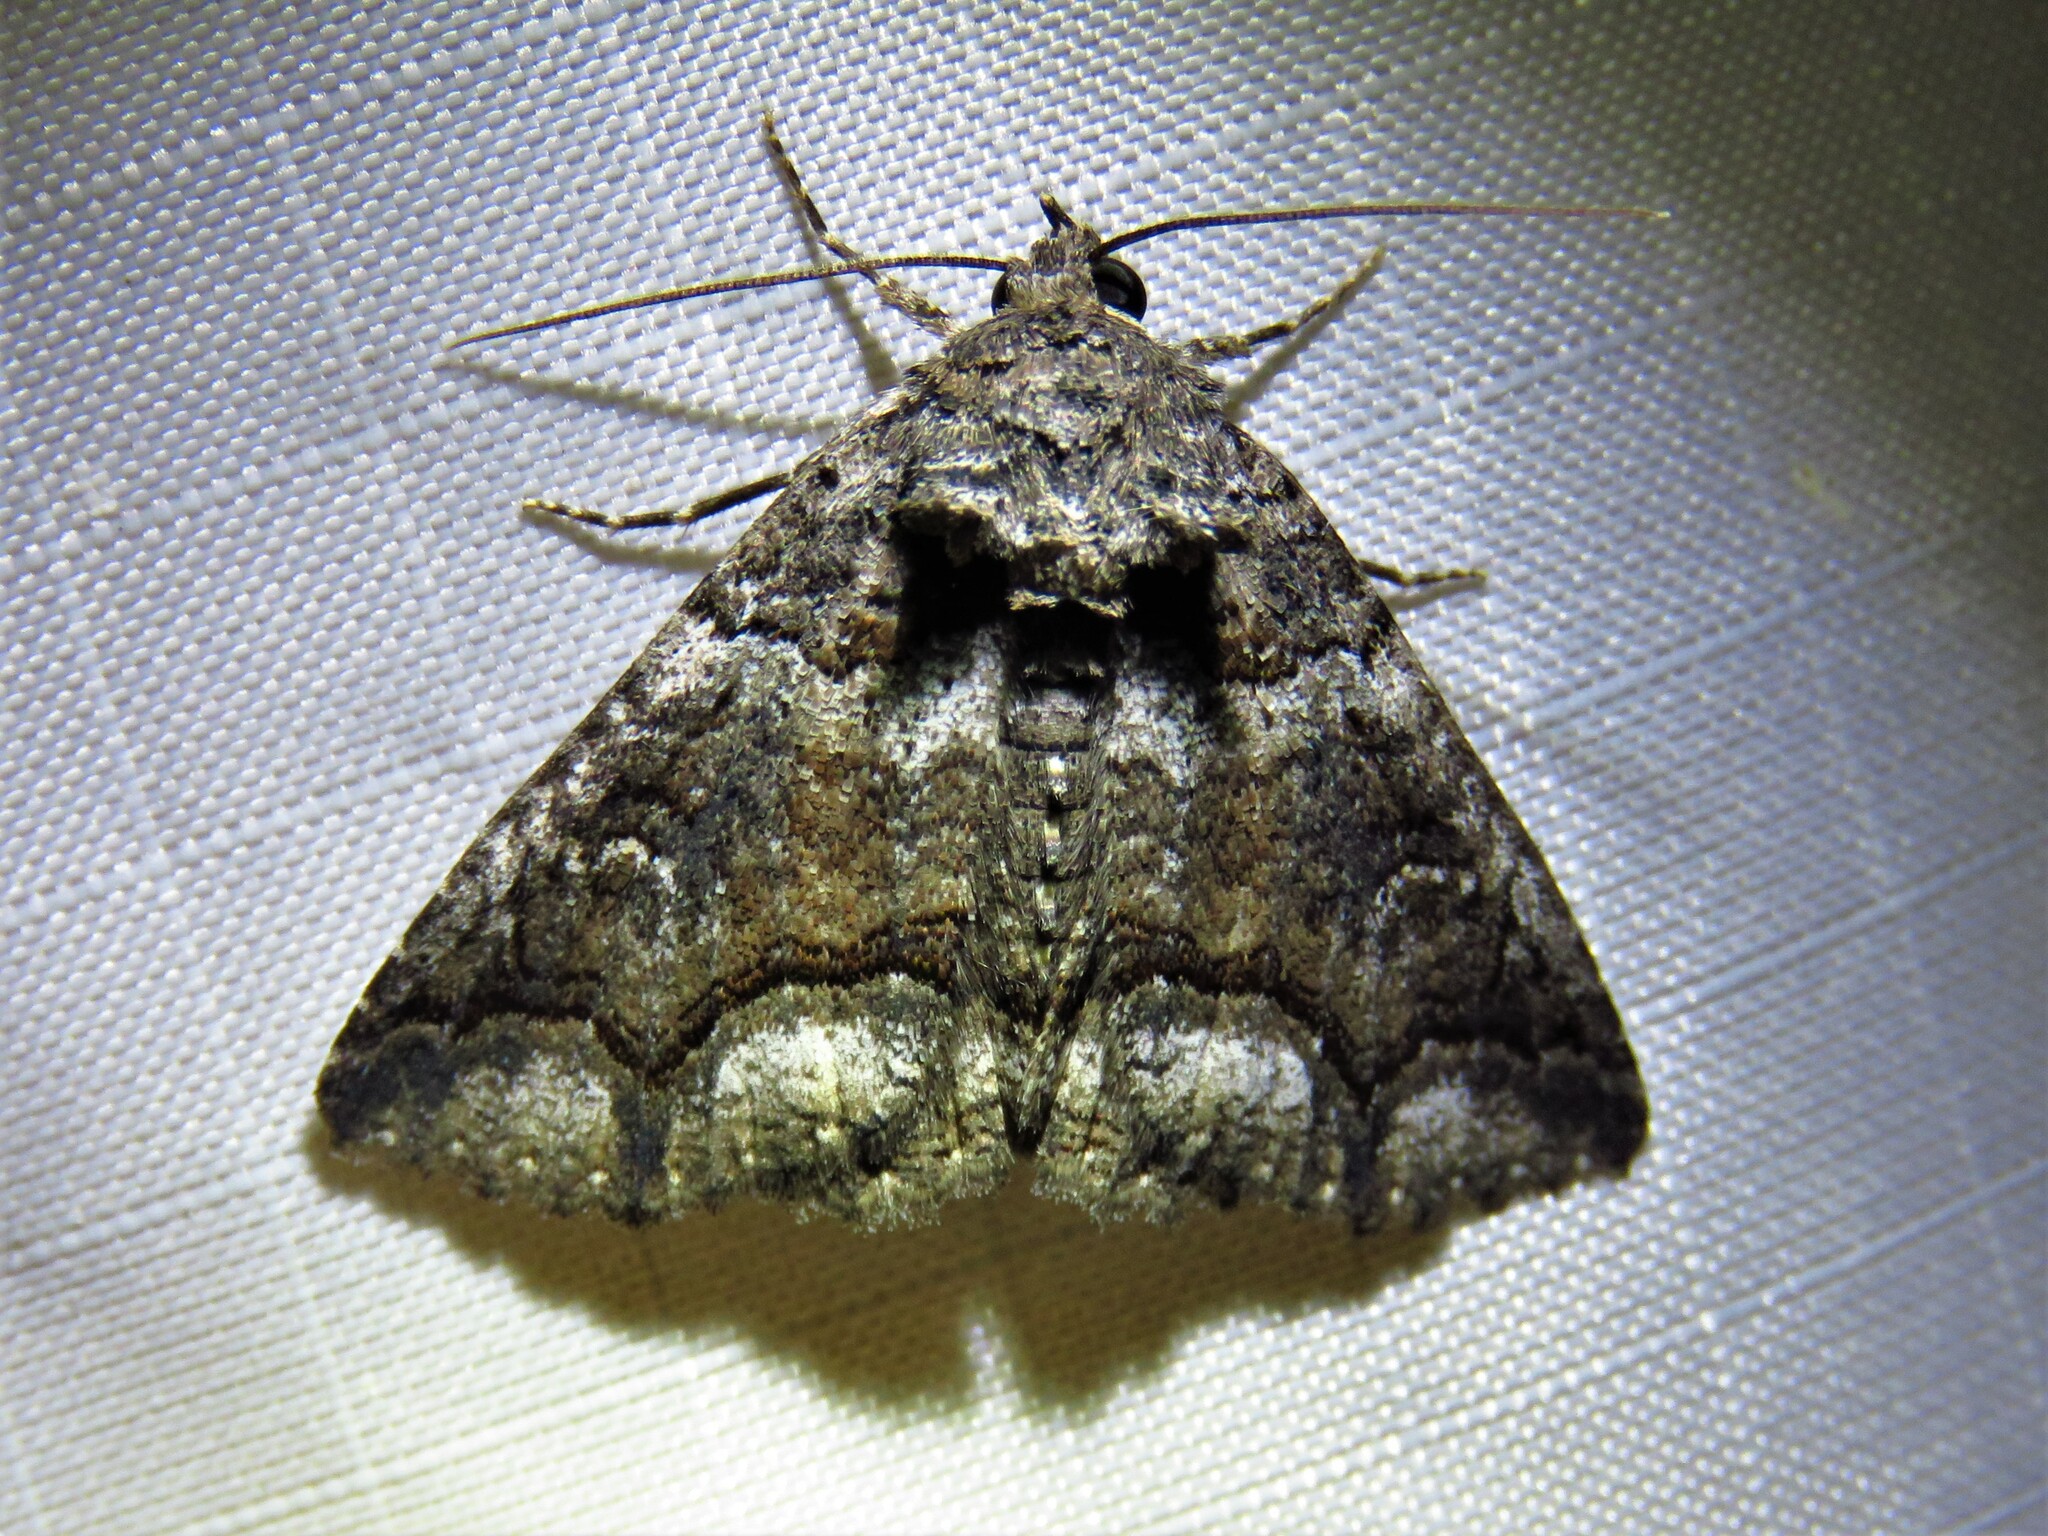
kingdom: Animalia
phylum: Arthropoda
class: Insecta
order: Lepidoptera
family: Erebidae
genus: Zale
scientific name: Zale edusina
